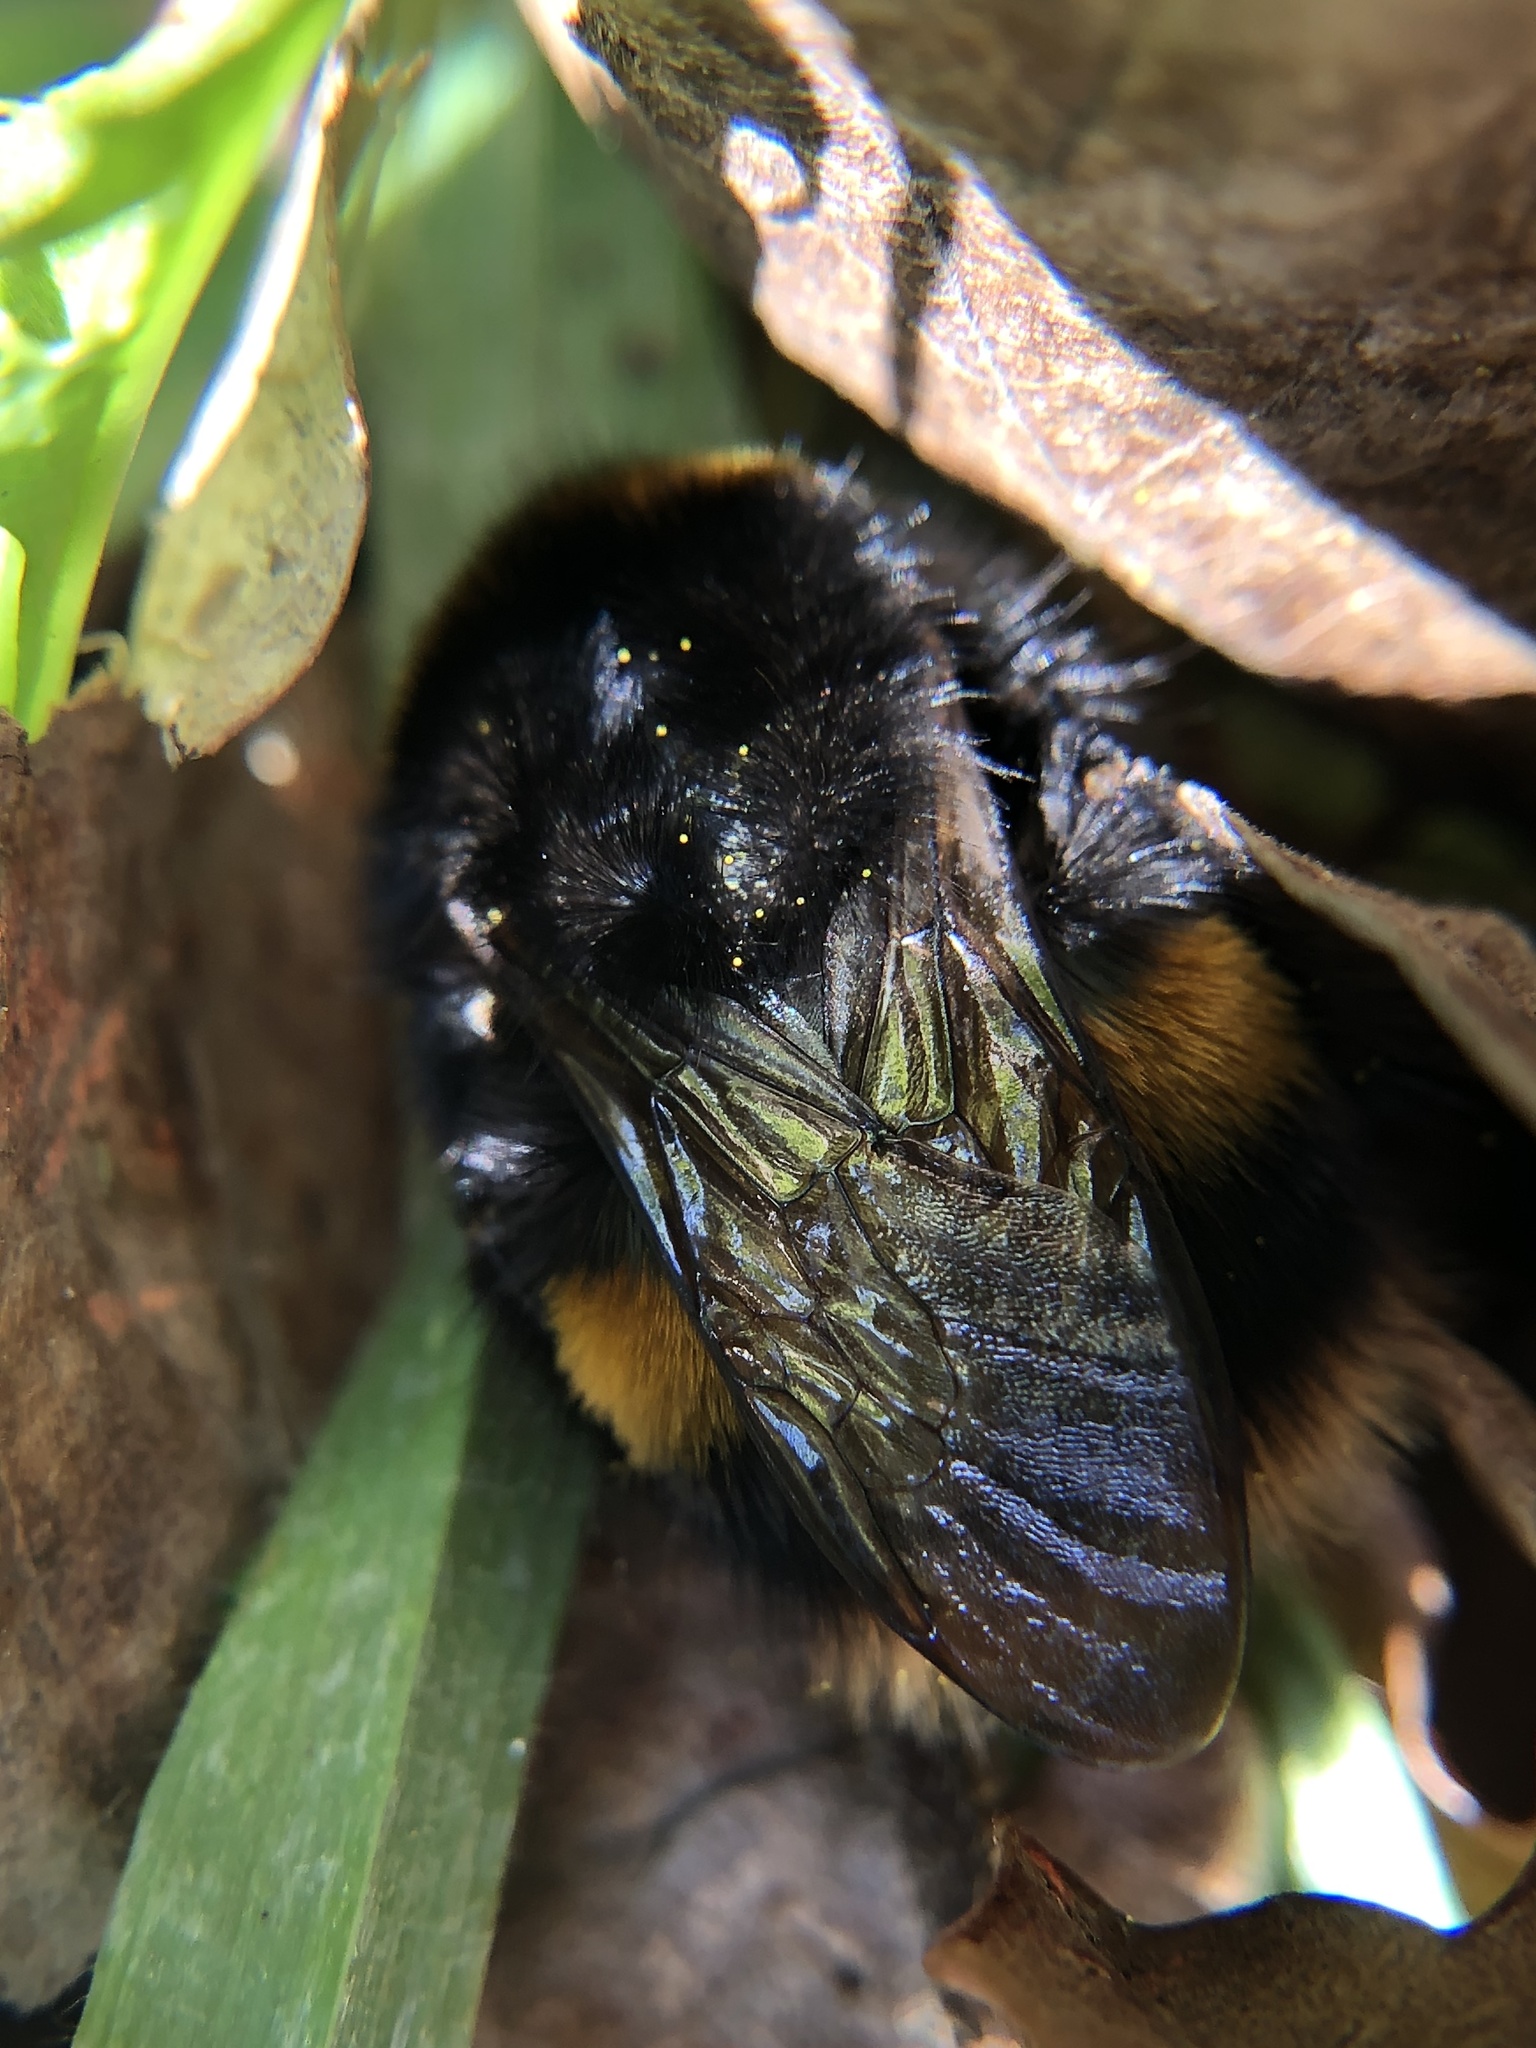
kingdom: Animalia
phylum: Arthropoda
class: Insecta
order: Hymenoptera
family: Apidae
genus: Bombus
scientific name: Bombus terrestris
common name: Buff-tailed bumblebee
